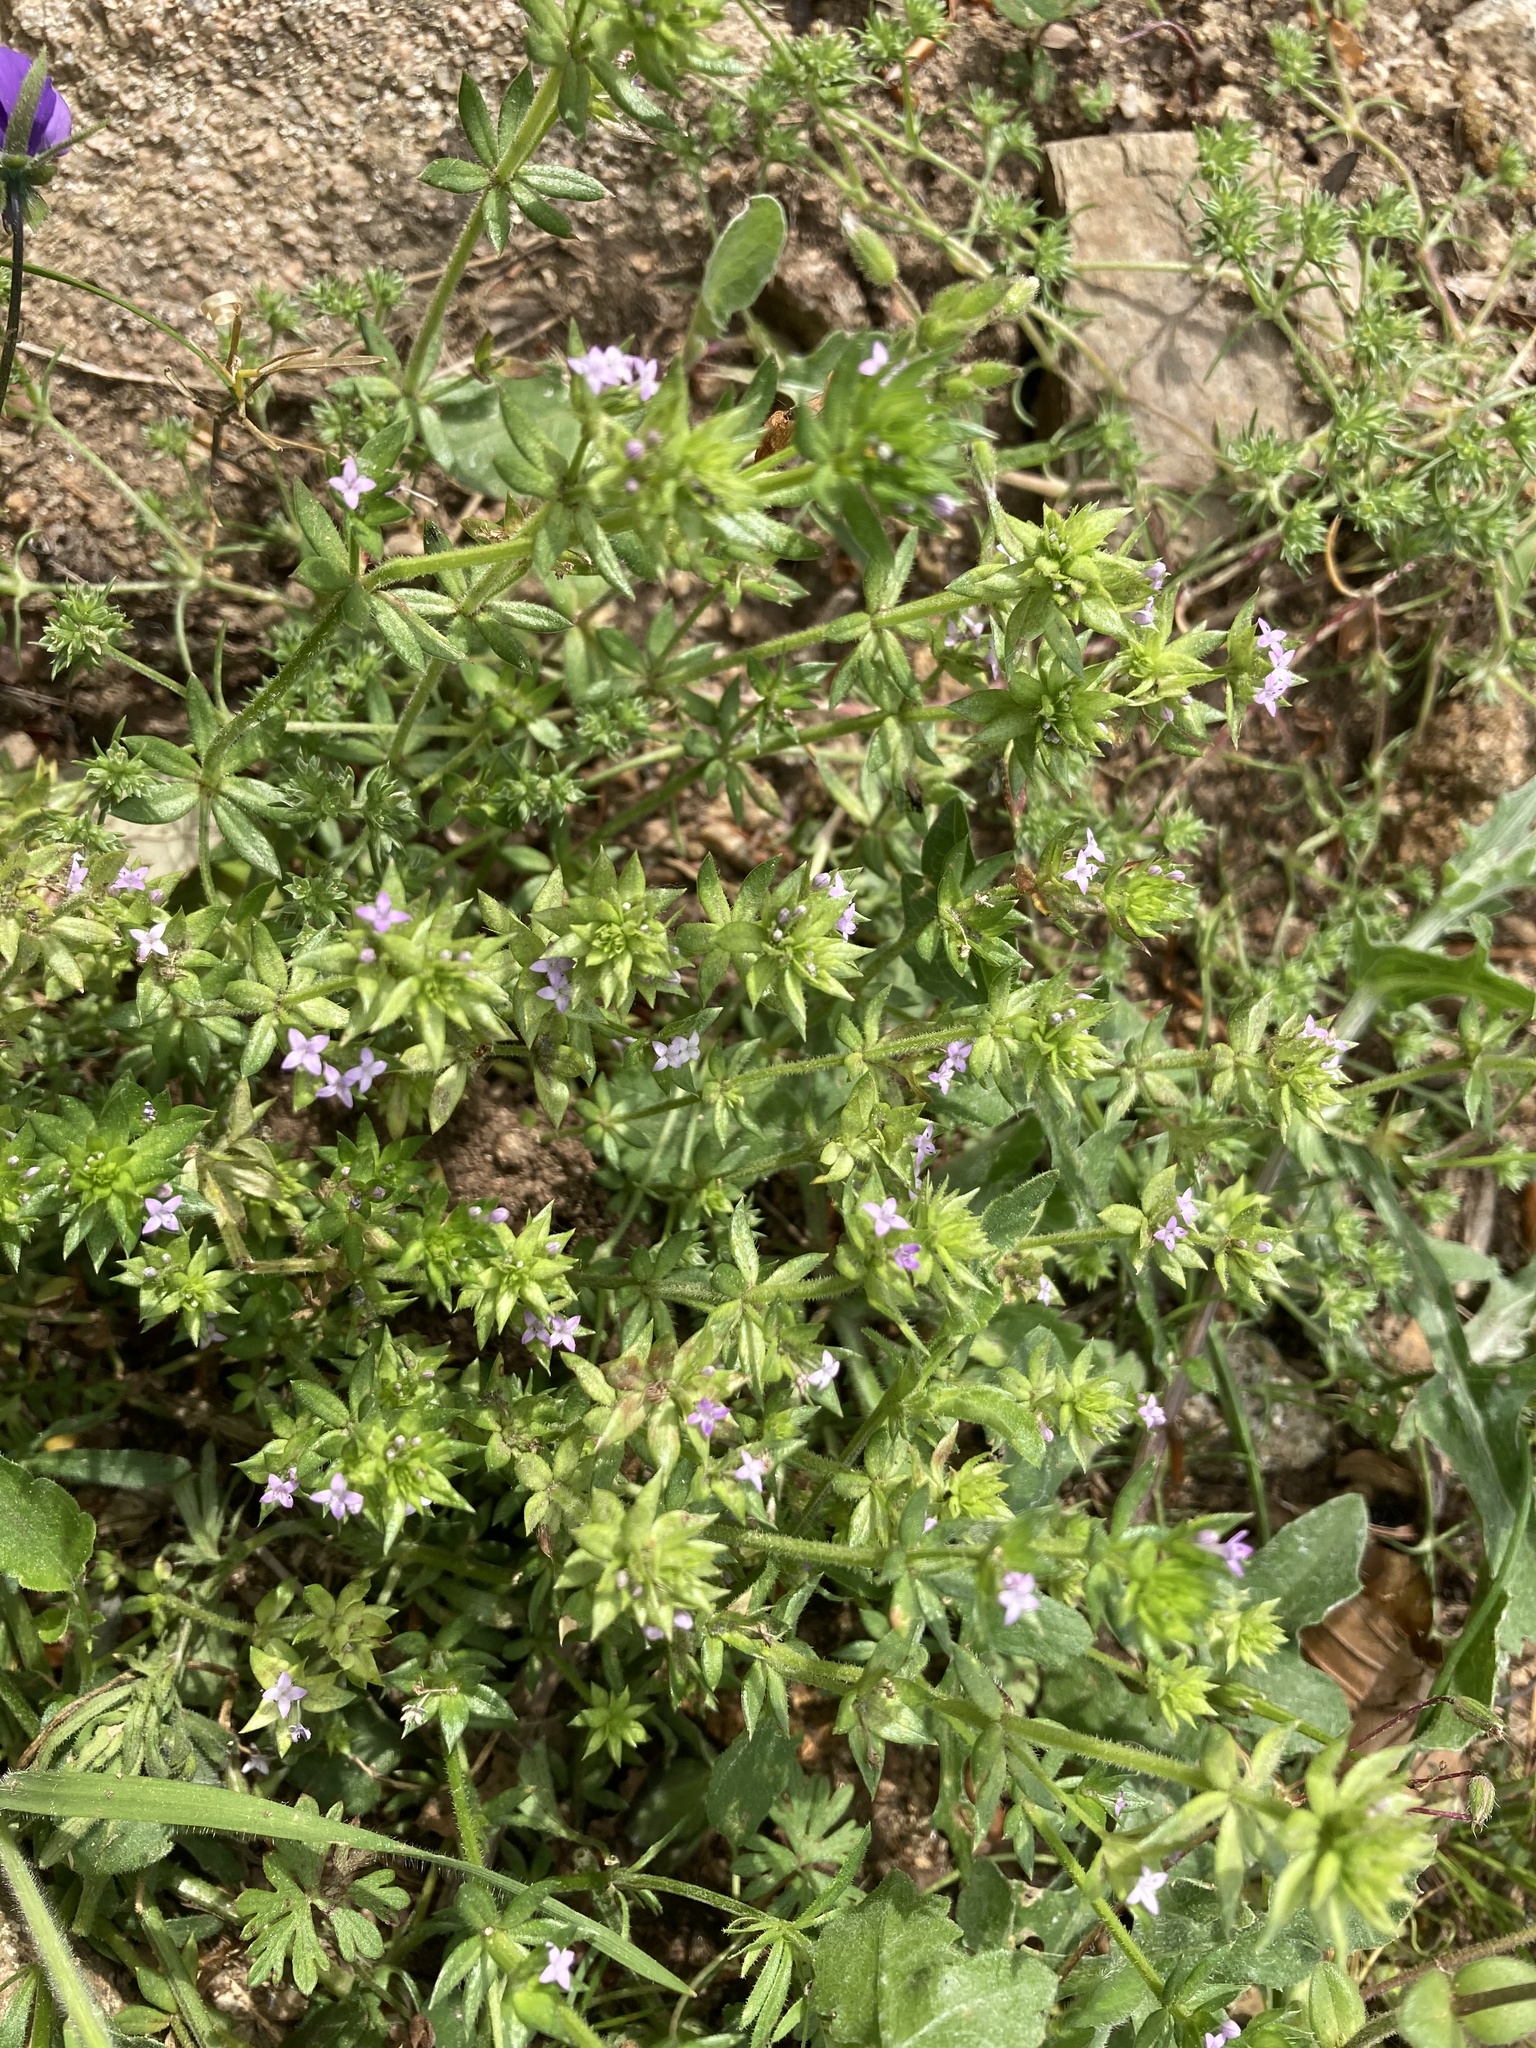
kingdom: Plantae
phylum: Tracheophyta
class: Magnoliopsida
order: Gentianales
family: Rubiaceae
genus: Sherardia
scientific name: Sherardia arvensis
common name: Field madder
